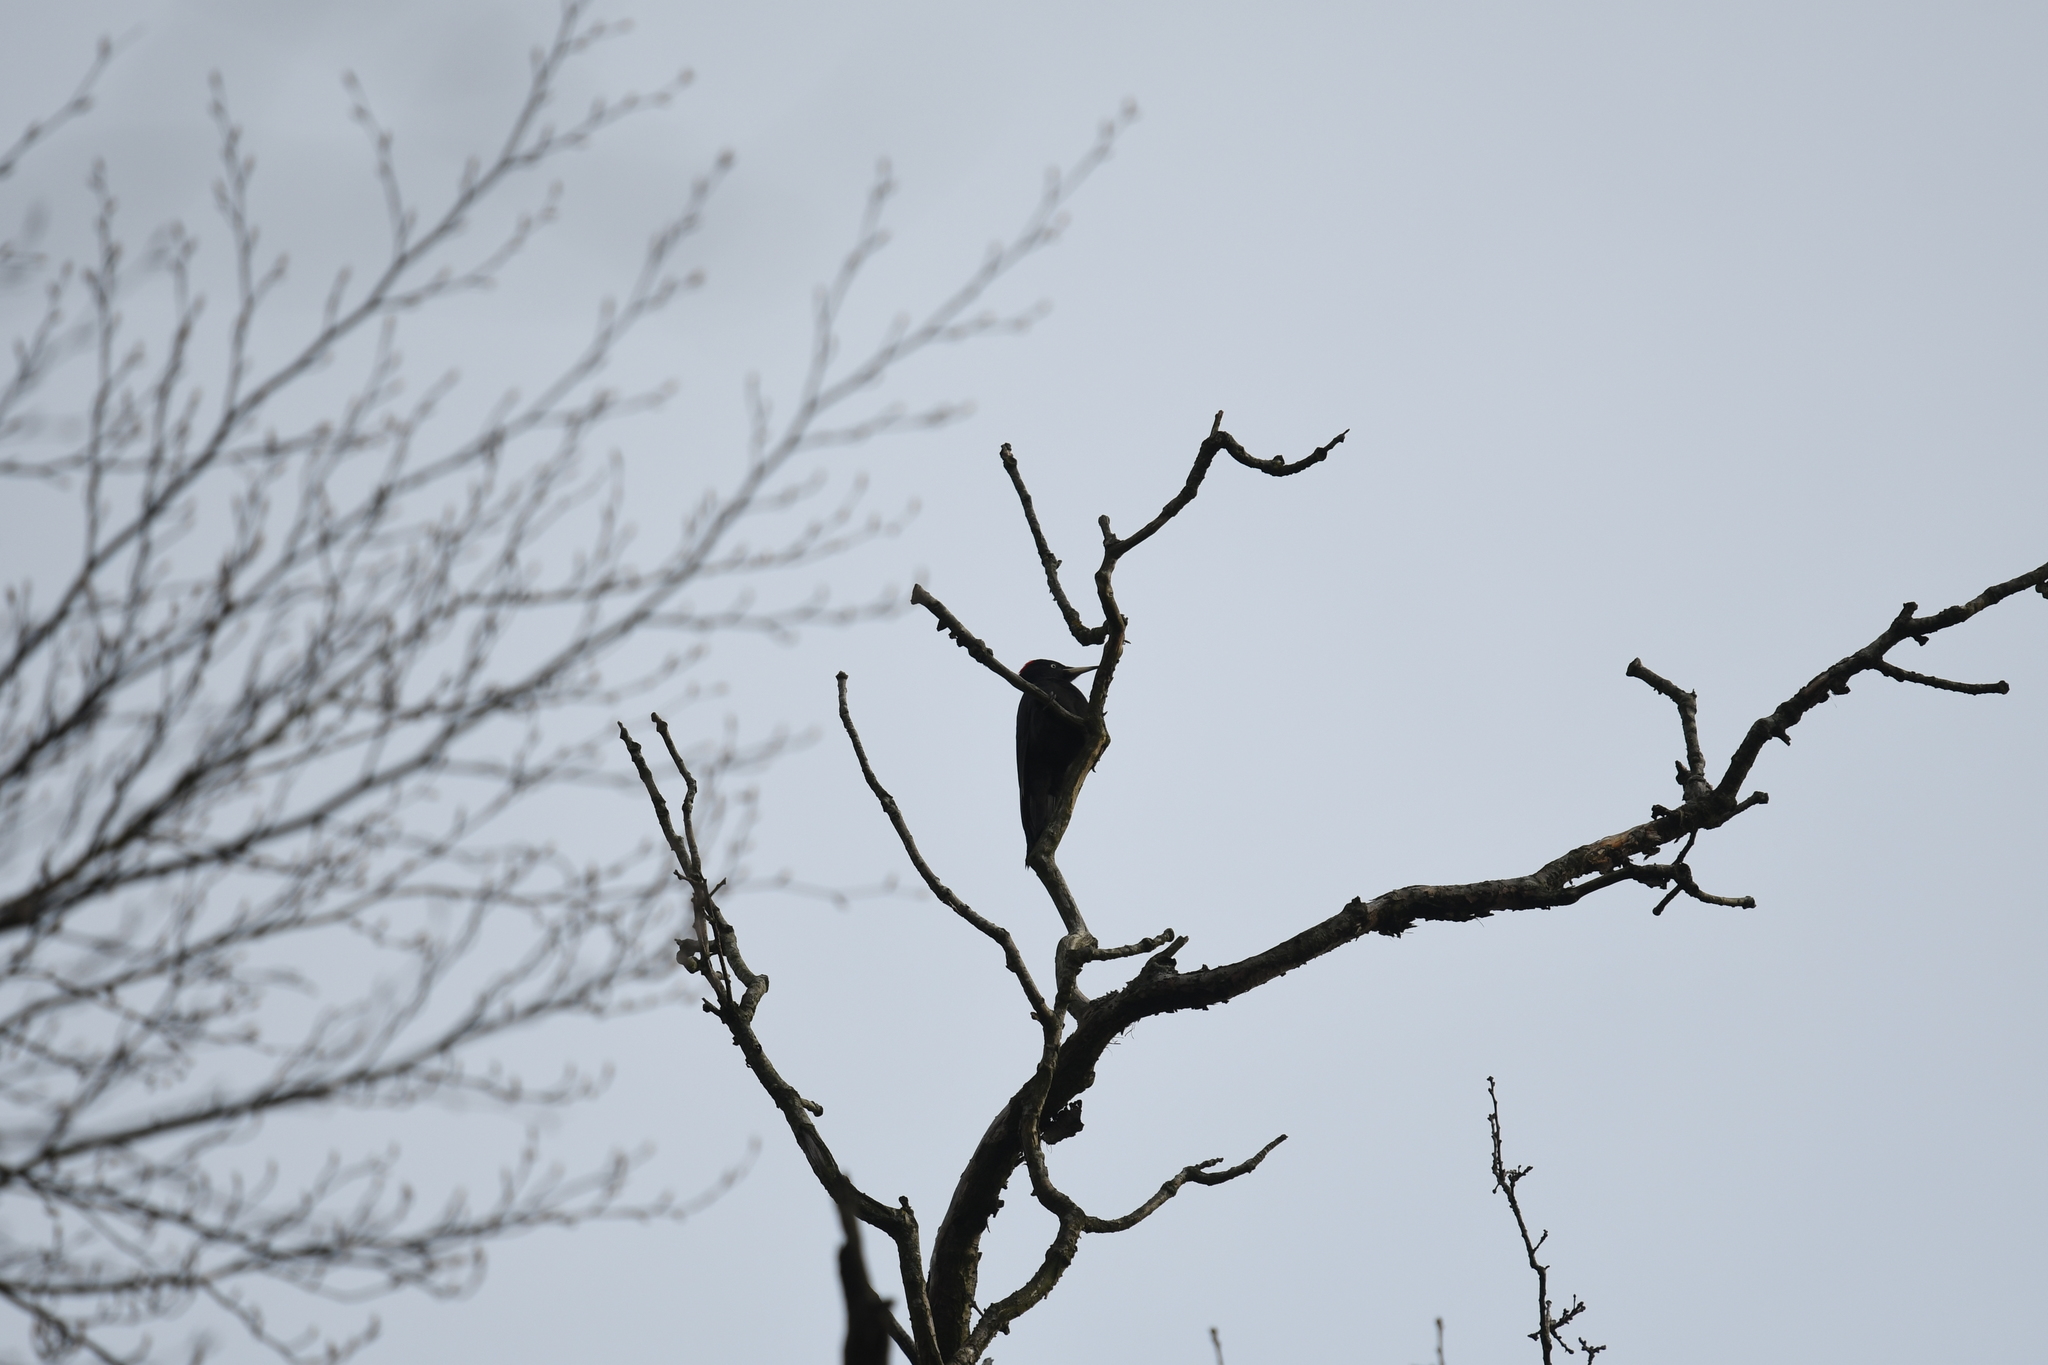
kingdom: Animalia
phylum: Chordata
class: Aves
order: Piciformes
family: Picidae
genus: Dryocopus
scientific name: Dryocopus martius
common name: Black woodpecker
